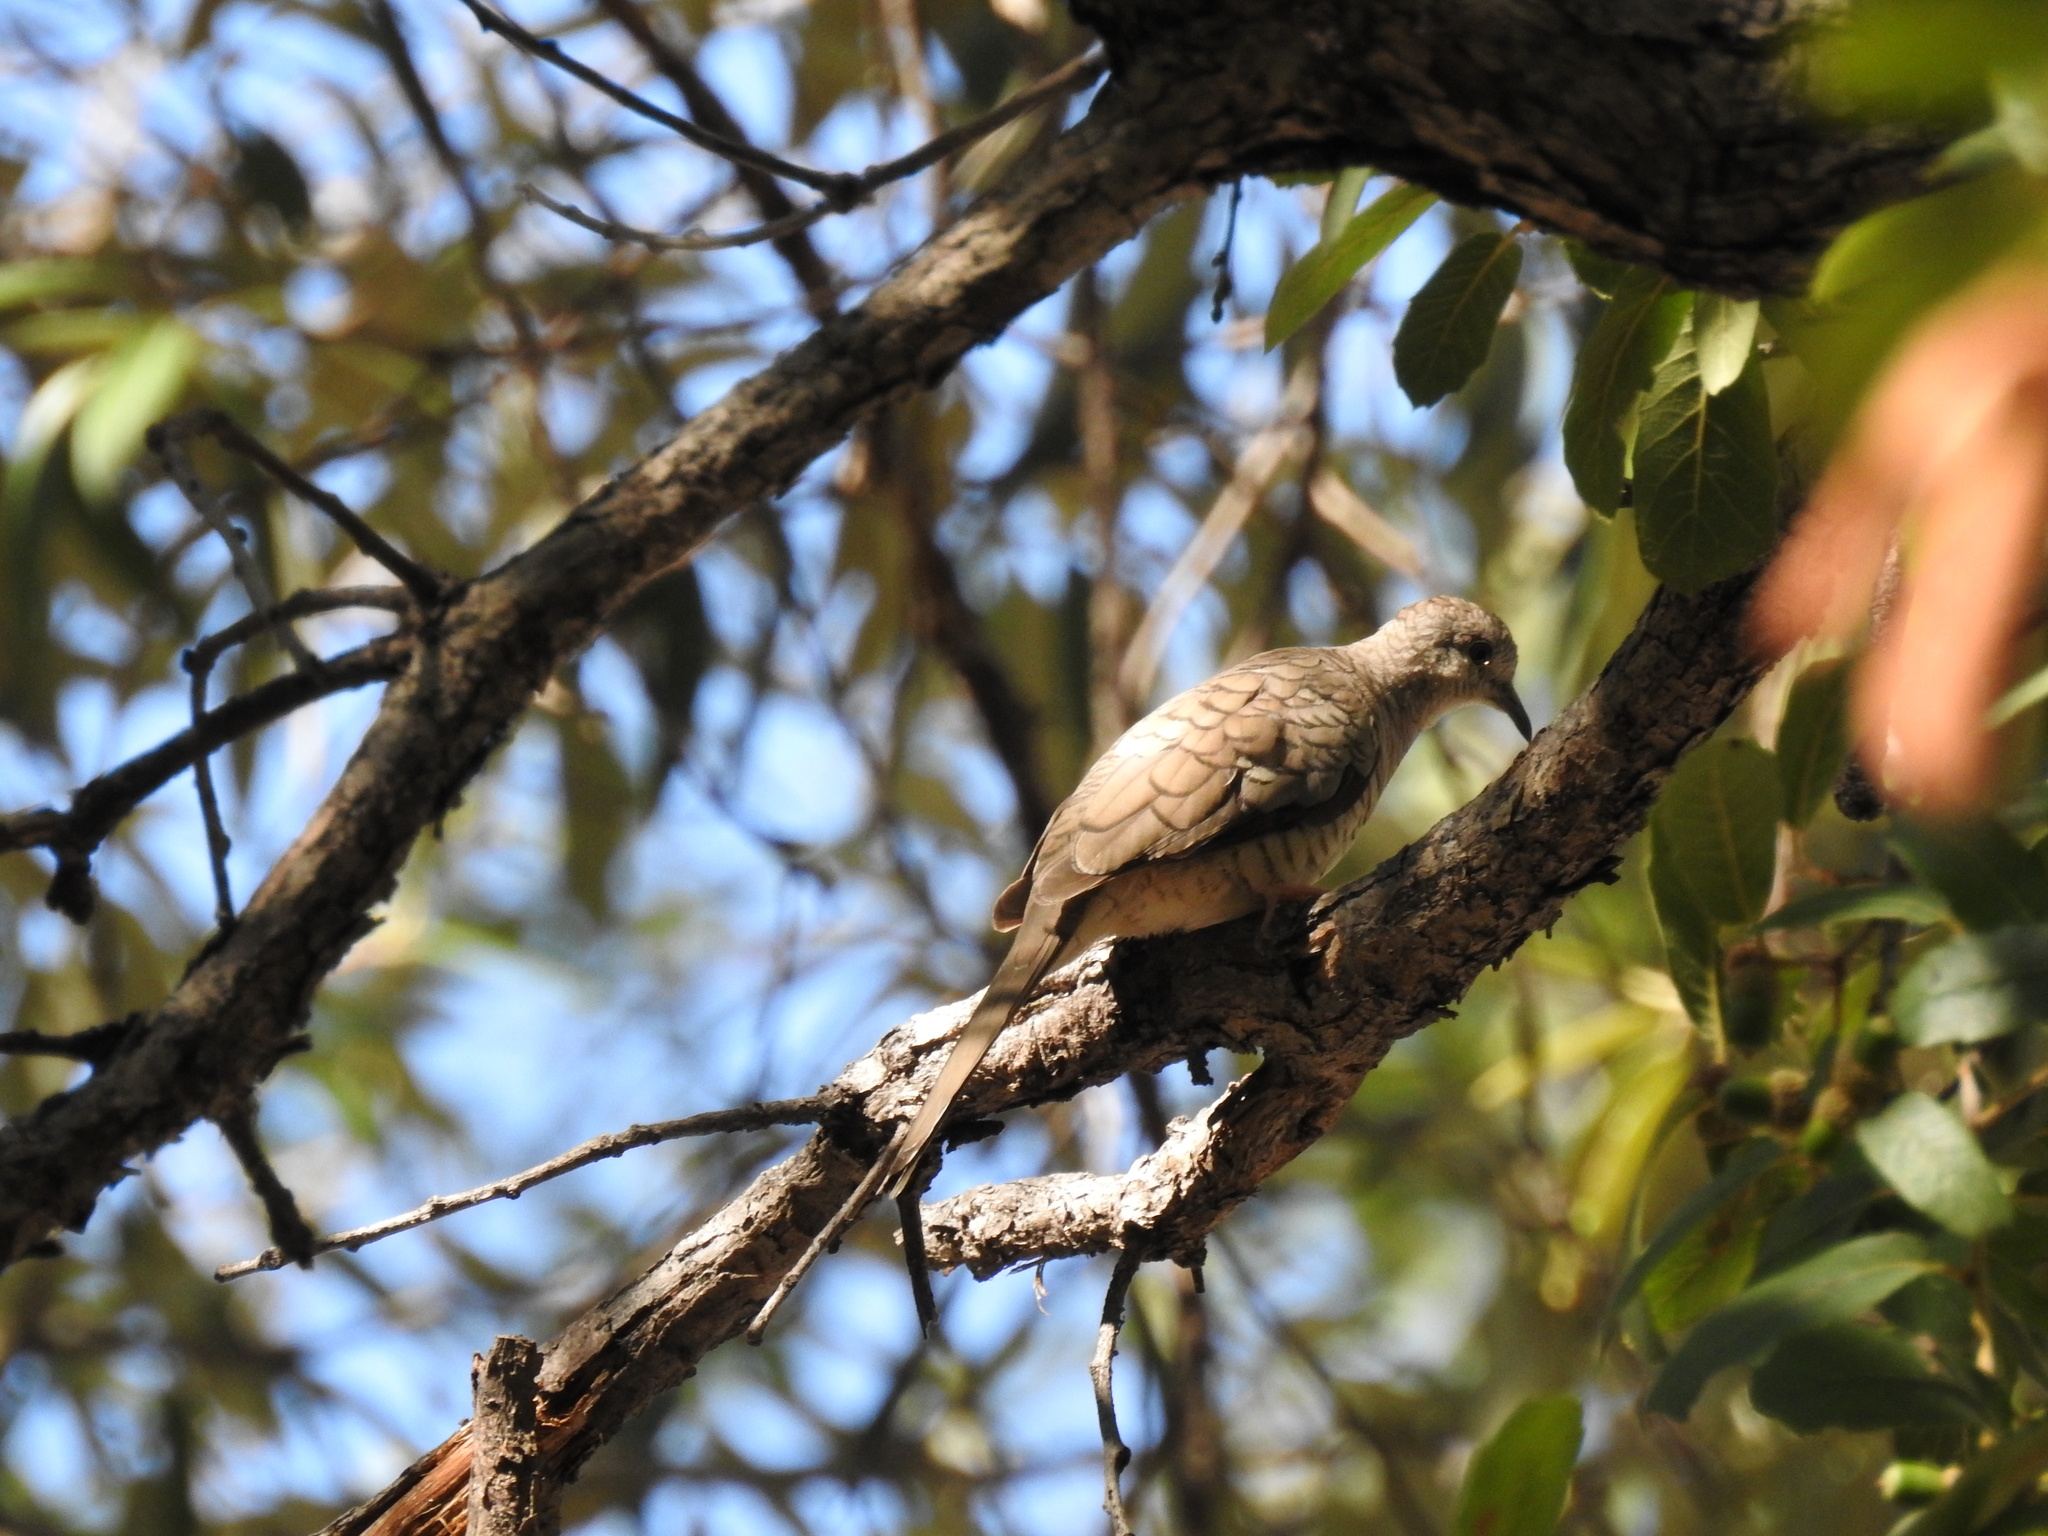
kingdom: Animalia
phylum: Chordata
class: Aves
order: Columbiformes
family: Columbidae
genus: Columbina
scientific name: Columbina inca
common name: Inca dove
